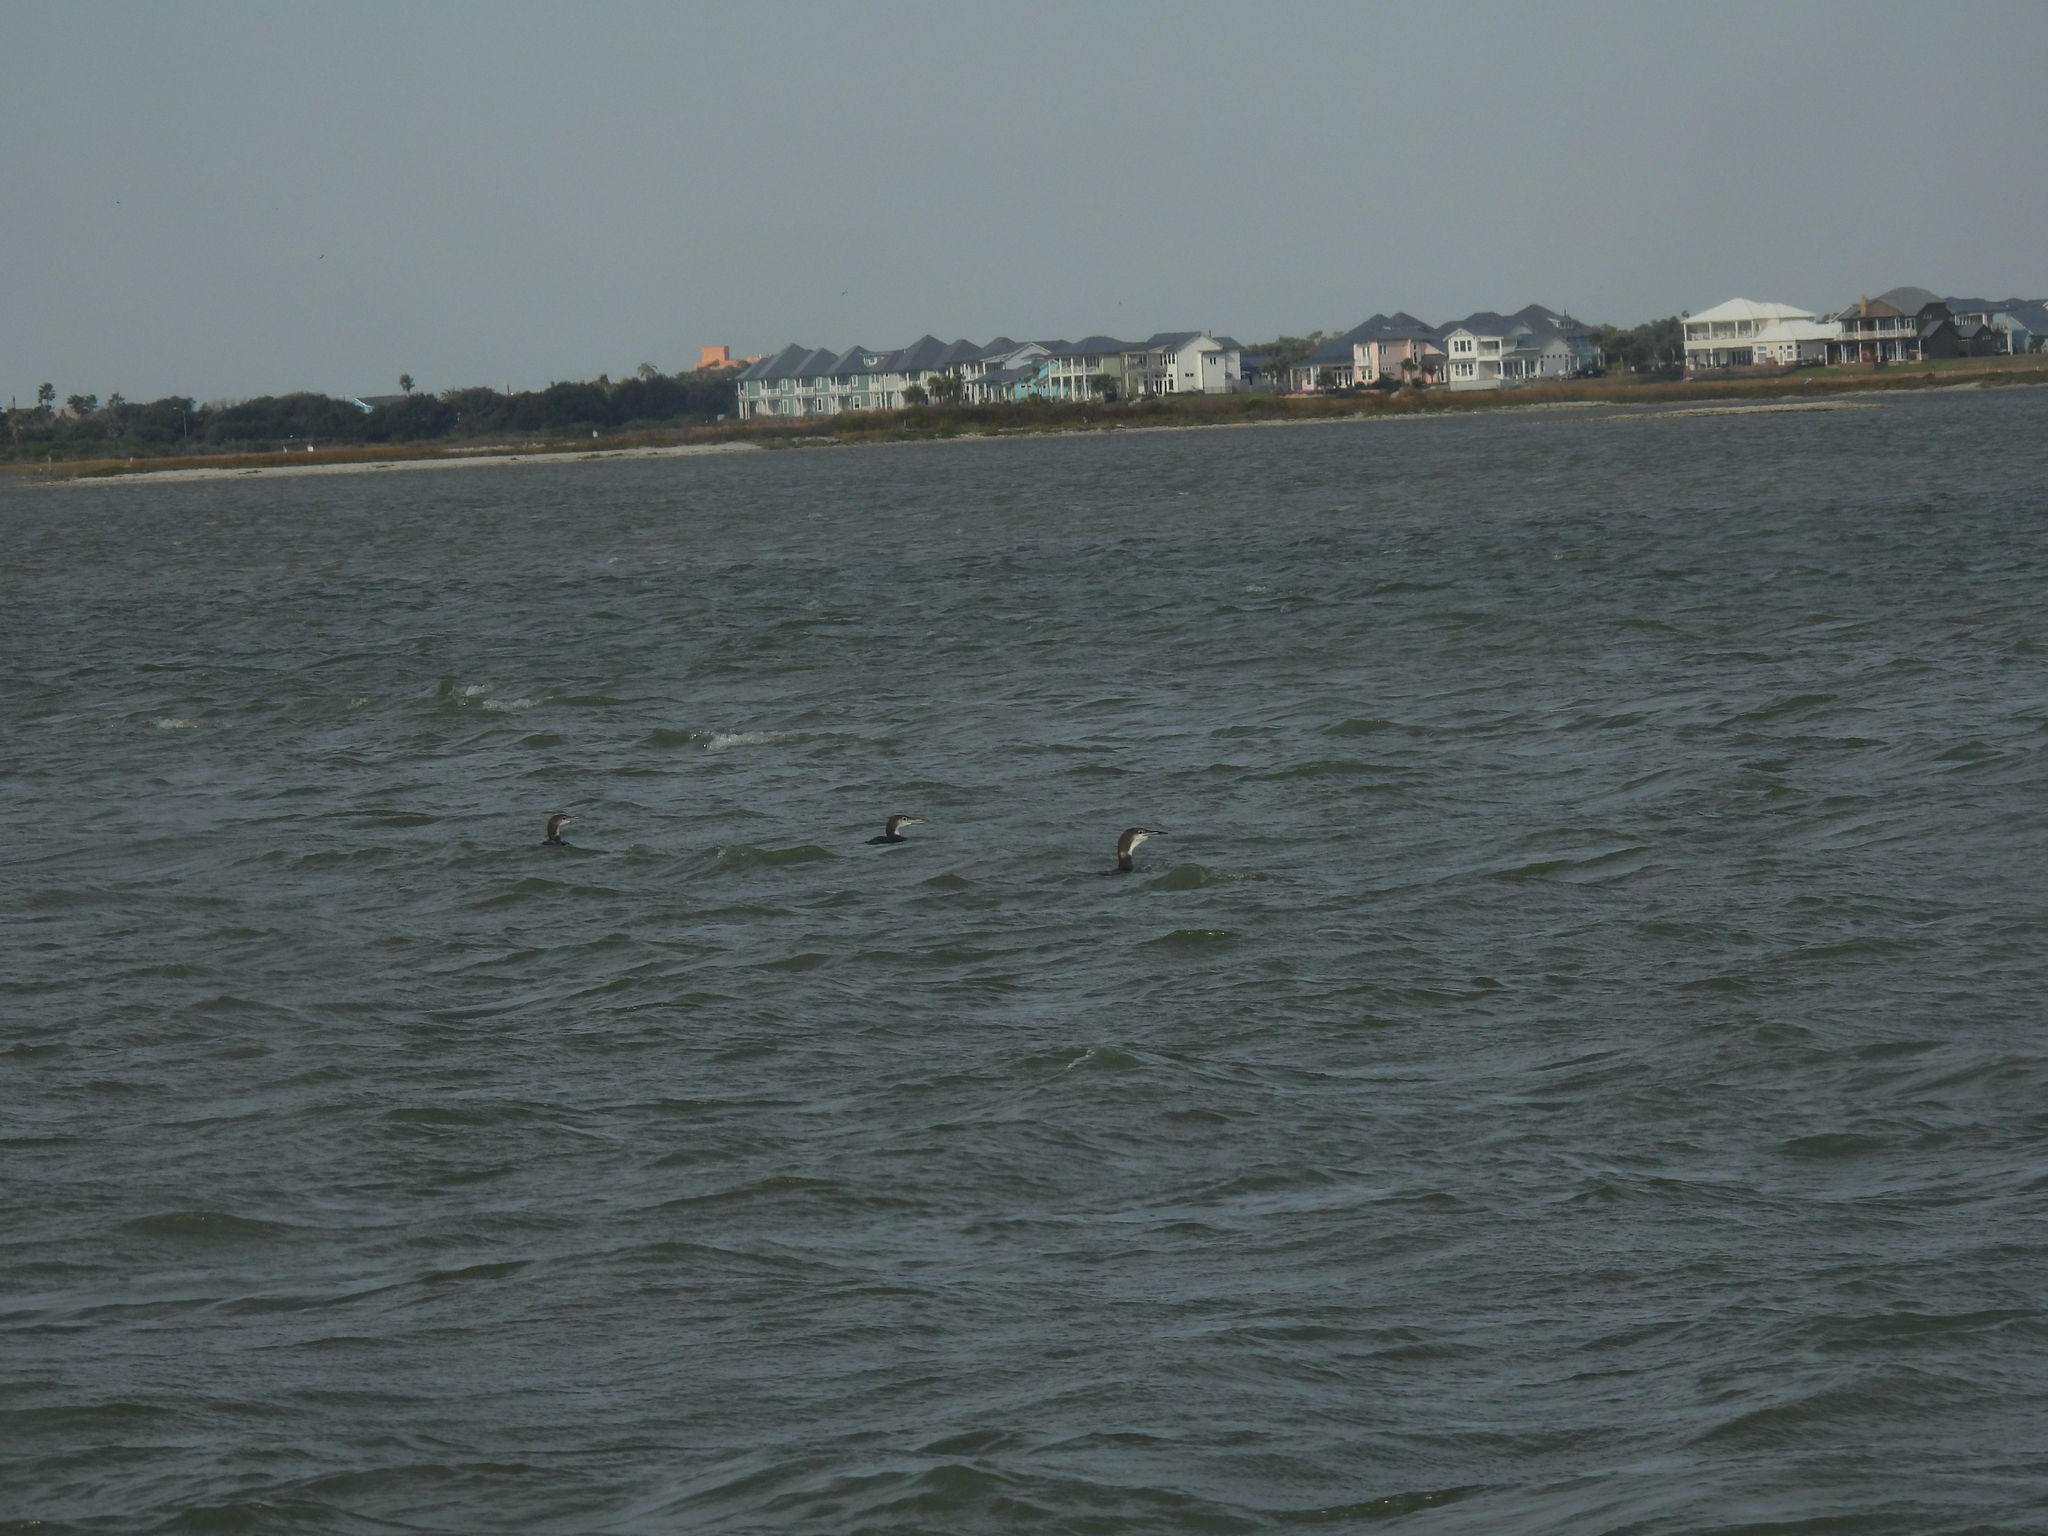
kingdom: Animalia
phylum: Chordata
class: Aves
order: Gaviiformes
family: Gaviidae
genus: Gavia
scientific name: Gavia immer
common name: Common loon
